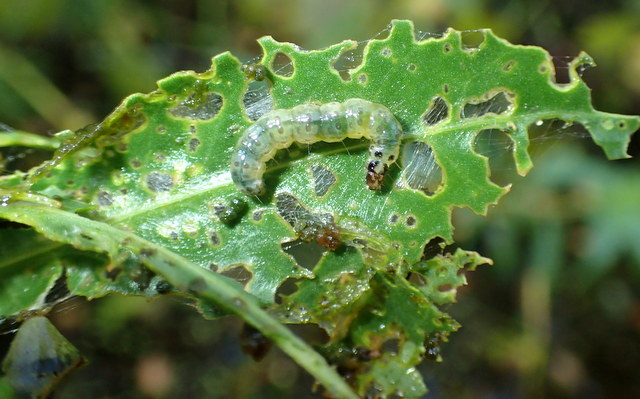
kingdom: Animalia
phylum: Arthropoda
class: Insecta
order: Lepidoptera
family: Crambidae
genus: Herpetogramma
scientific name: Herpetogramma bipunctalis
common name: Southern beet webworm
